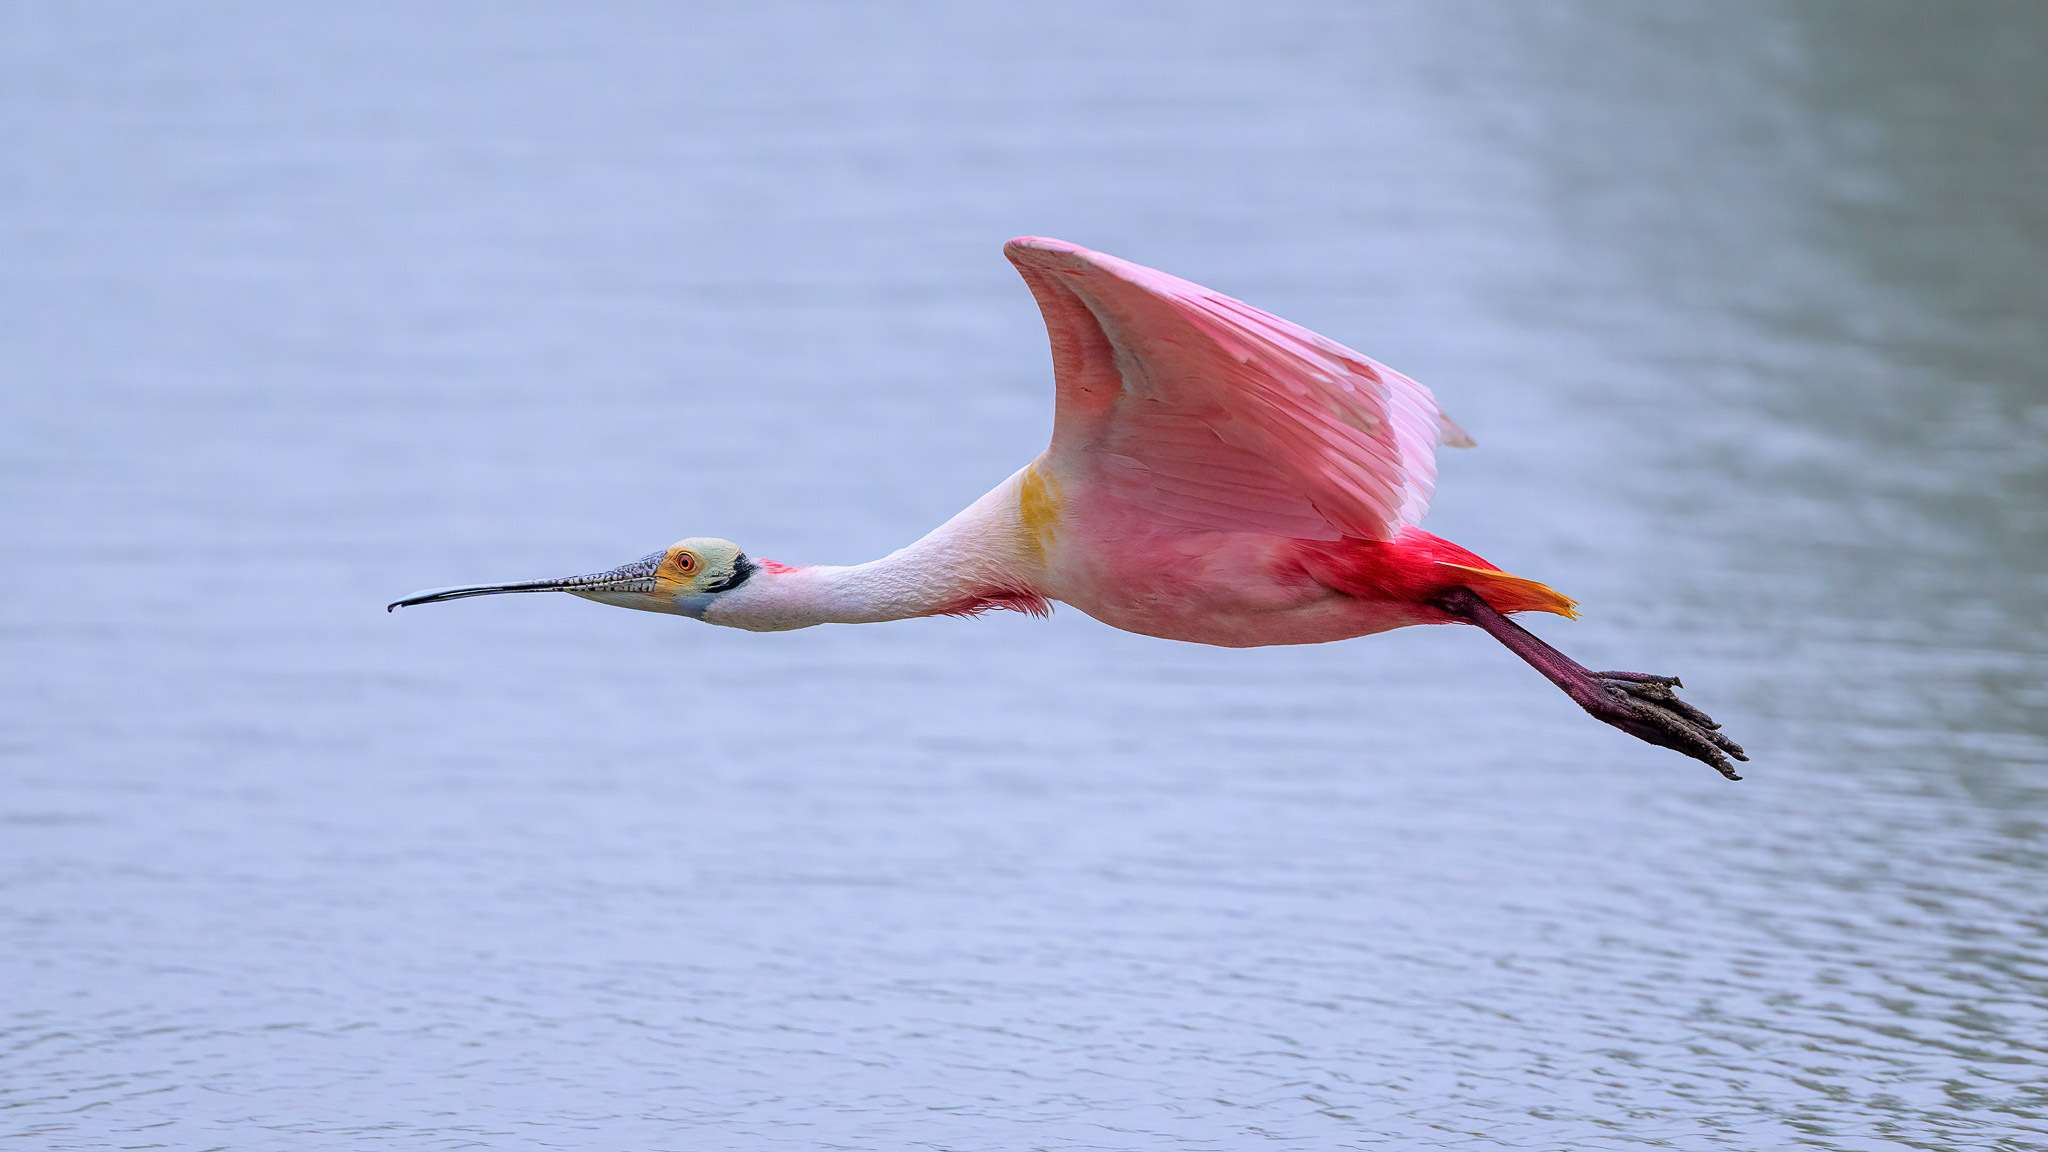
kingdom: Animalia
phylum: Chordata
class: Aves
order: Pelecaniformes
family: Threskiornithidae
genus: Platalea
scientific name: Platalea ajaja
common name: Roseate spoonbill
